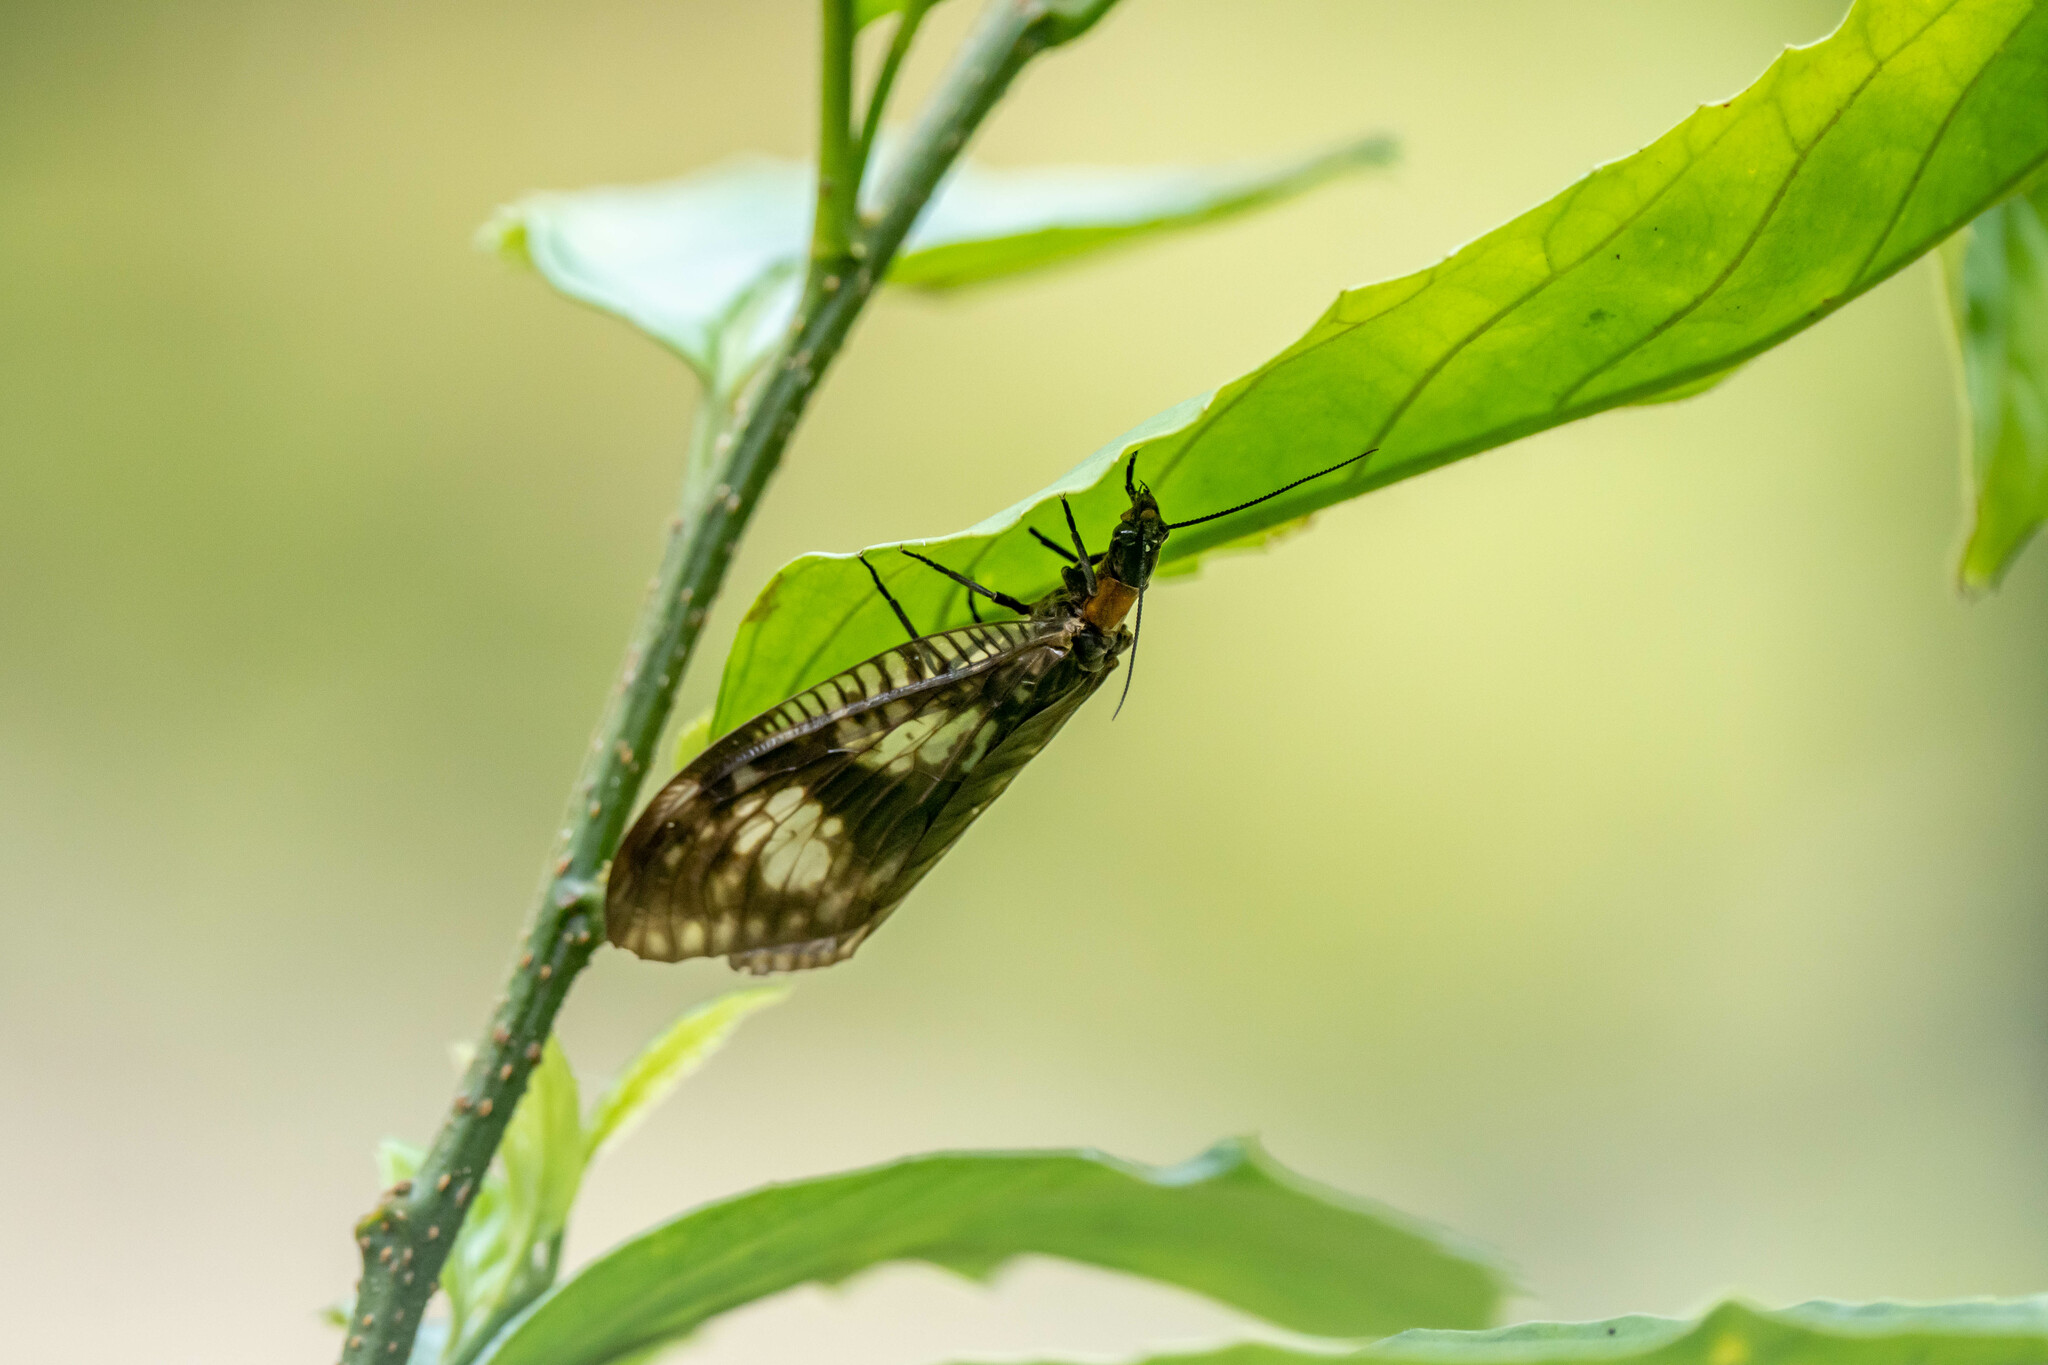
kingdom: Animalia
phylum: Arthropoda
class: Insecta
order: Megaloptera
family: Corydalidae
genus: Neochauliodes
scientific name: Neochauliodes koreanus
